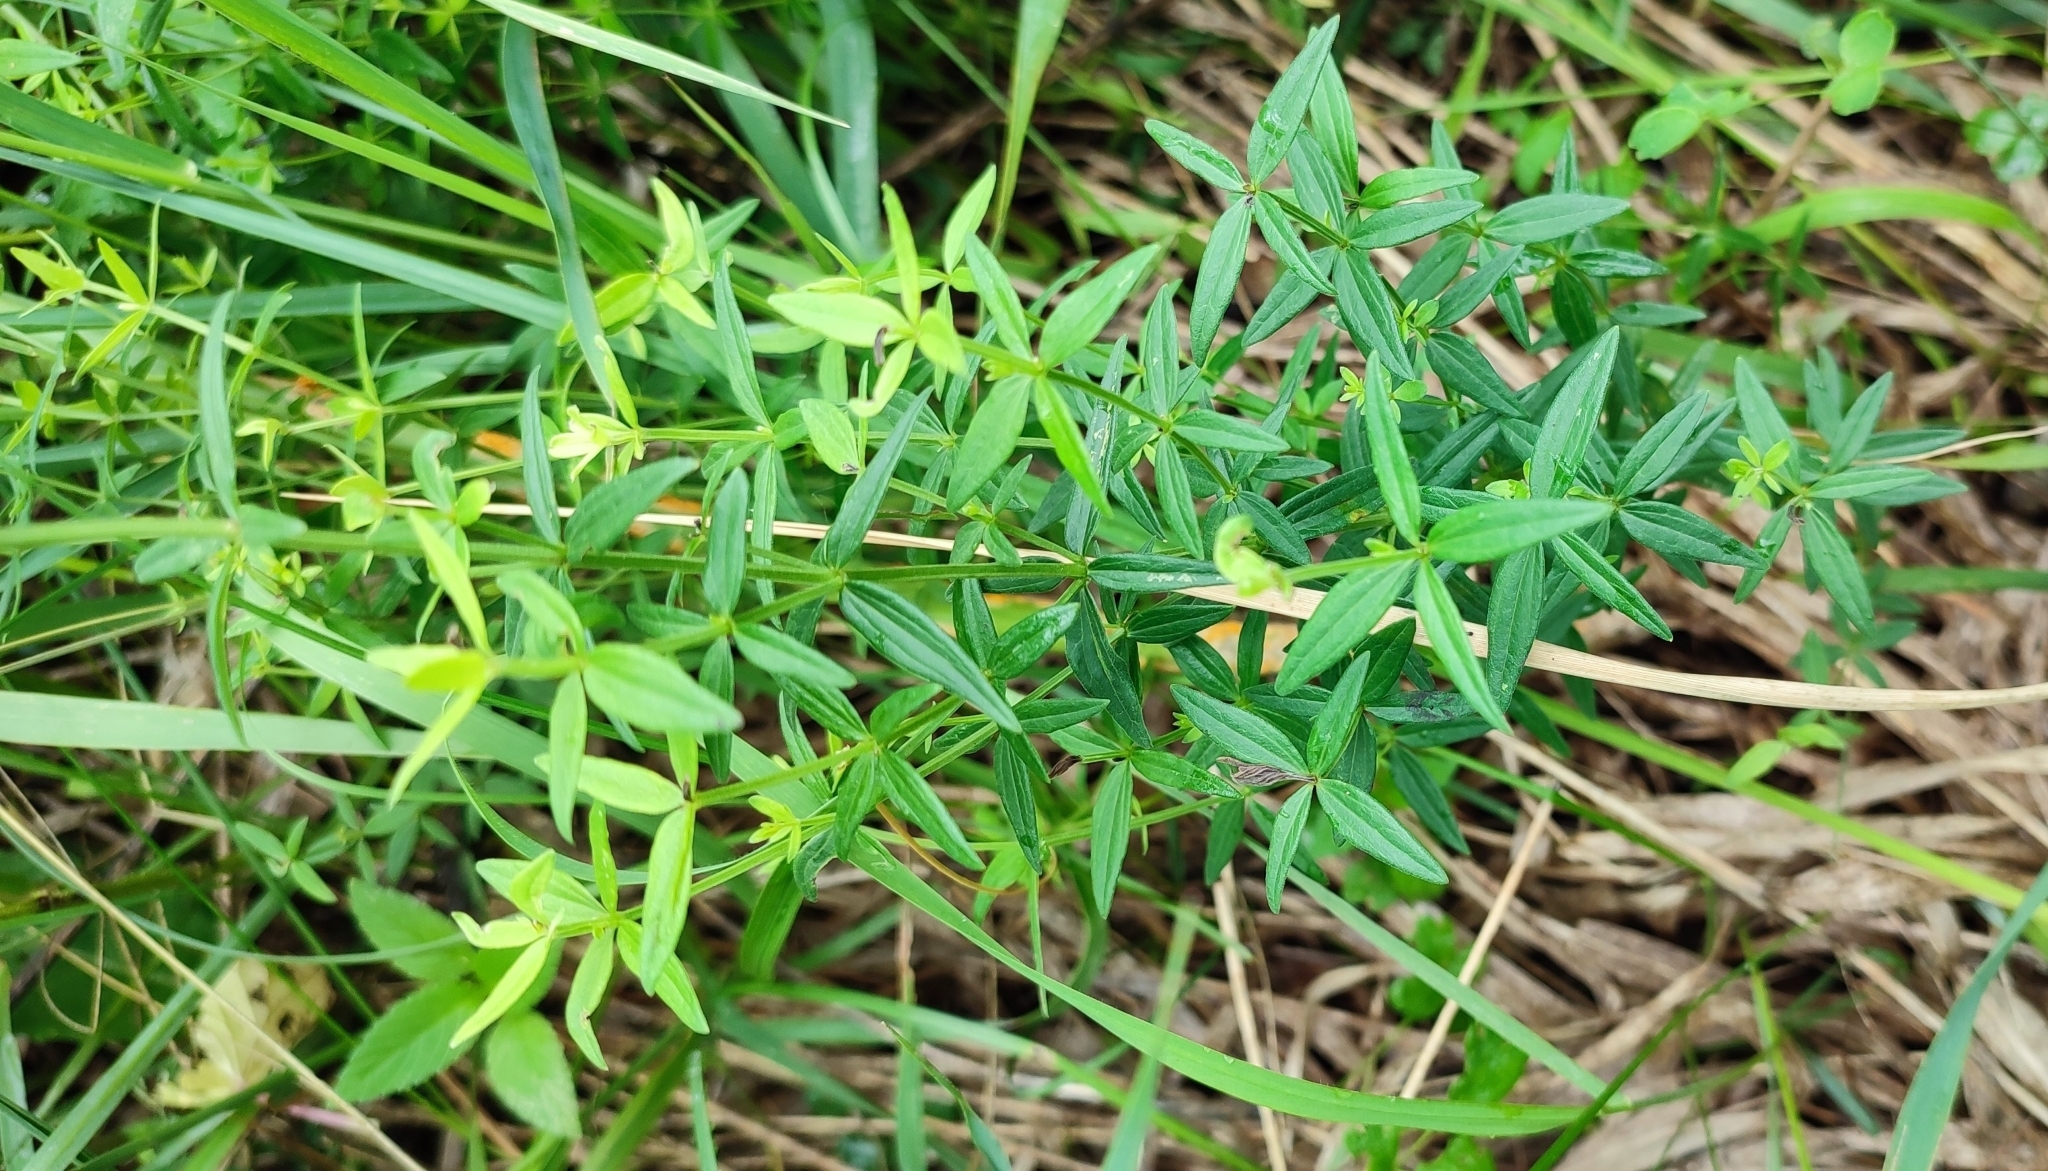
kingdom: Plantae
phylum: Tracheophyta
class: Magnoliopsida
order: Gentianales
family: Rubiaceae
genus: Galium
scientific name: Galium boreale
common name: Northern bedstraw
